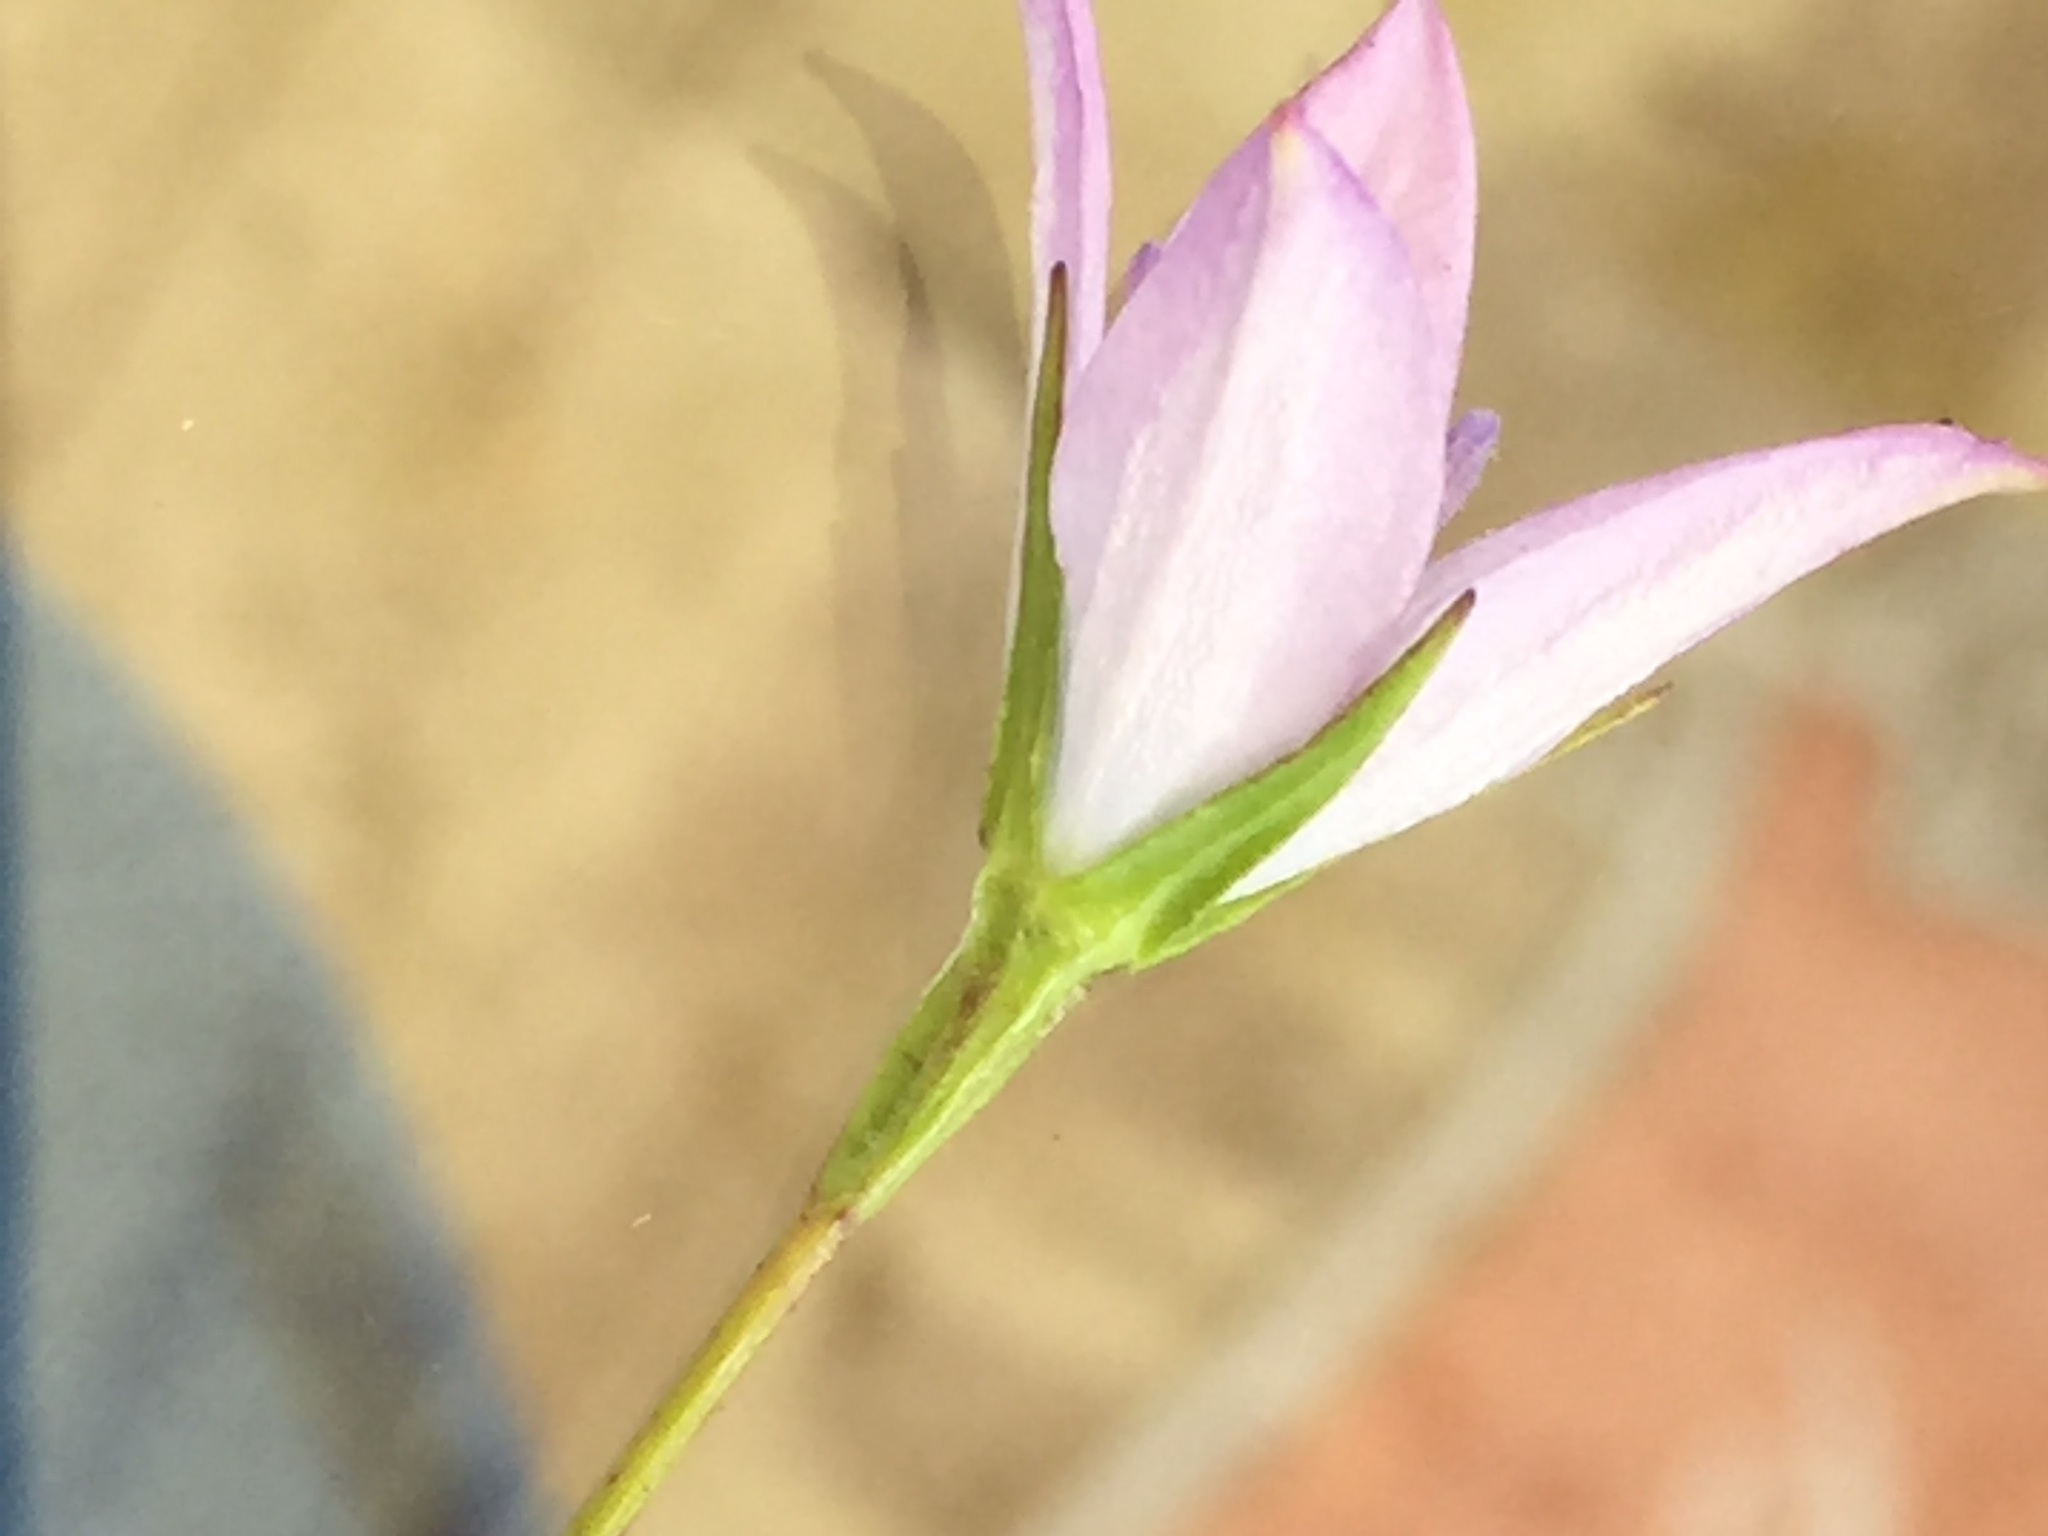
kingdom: Plantae
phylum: Tracheophyta
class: Magnoliopsida
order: Asterales
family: Campanulaceae
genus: Campanula
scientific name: Campanula stevenii
